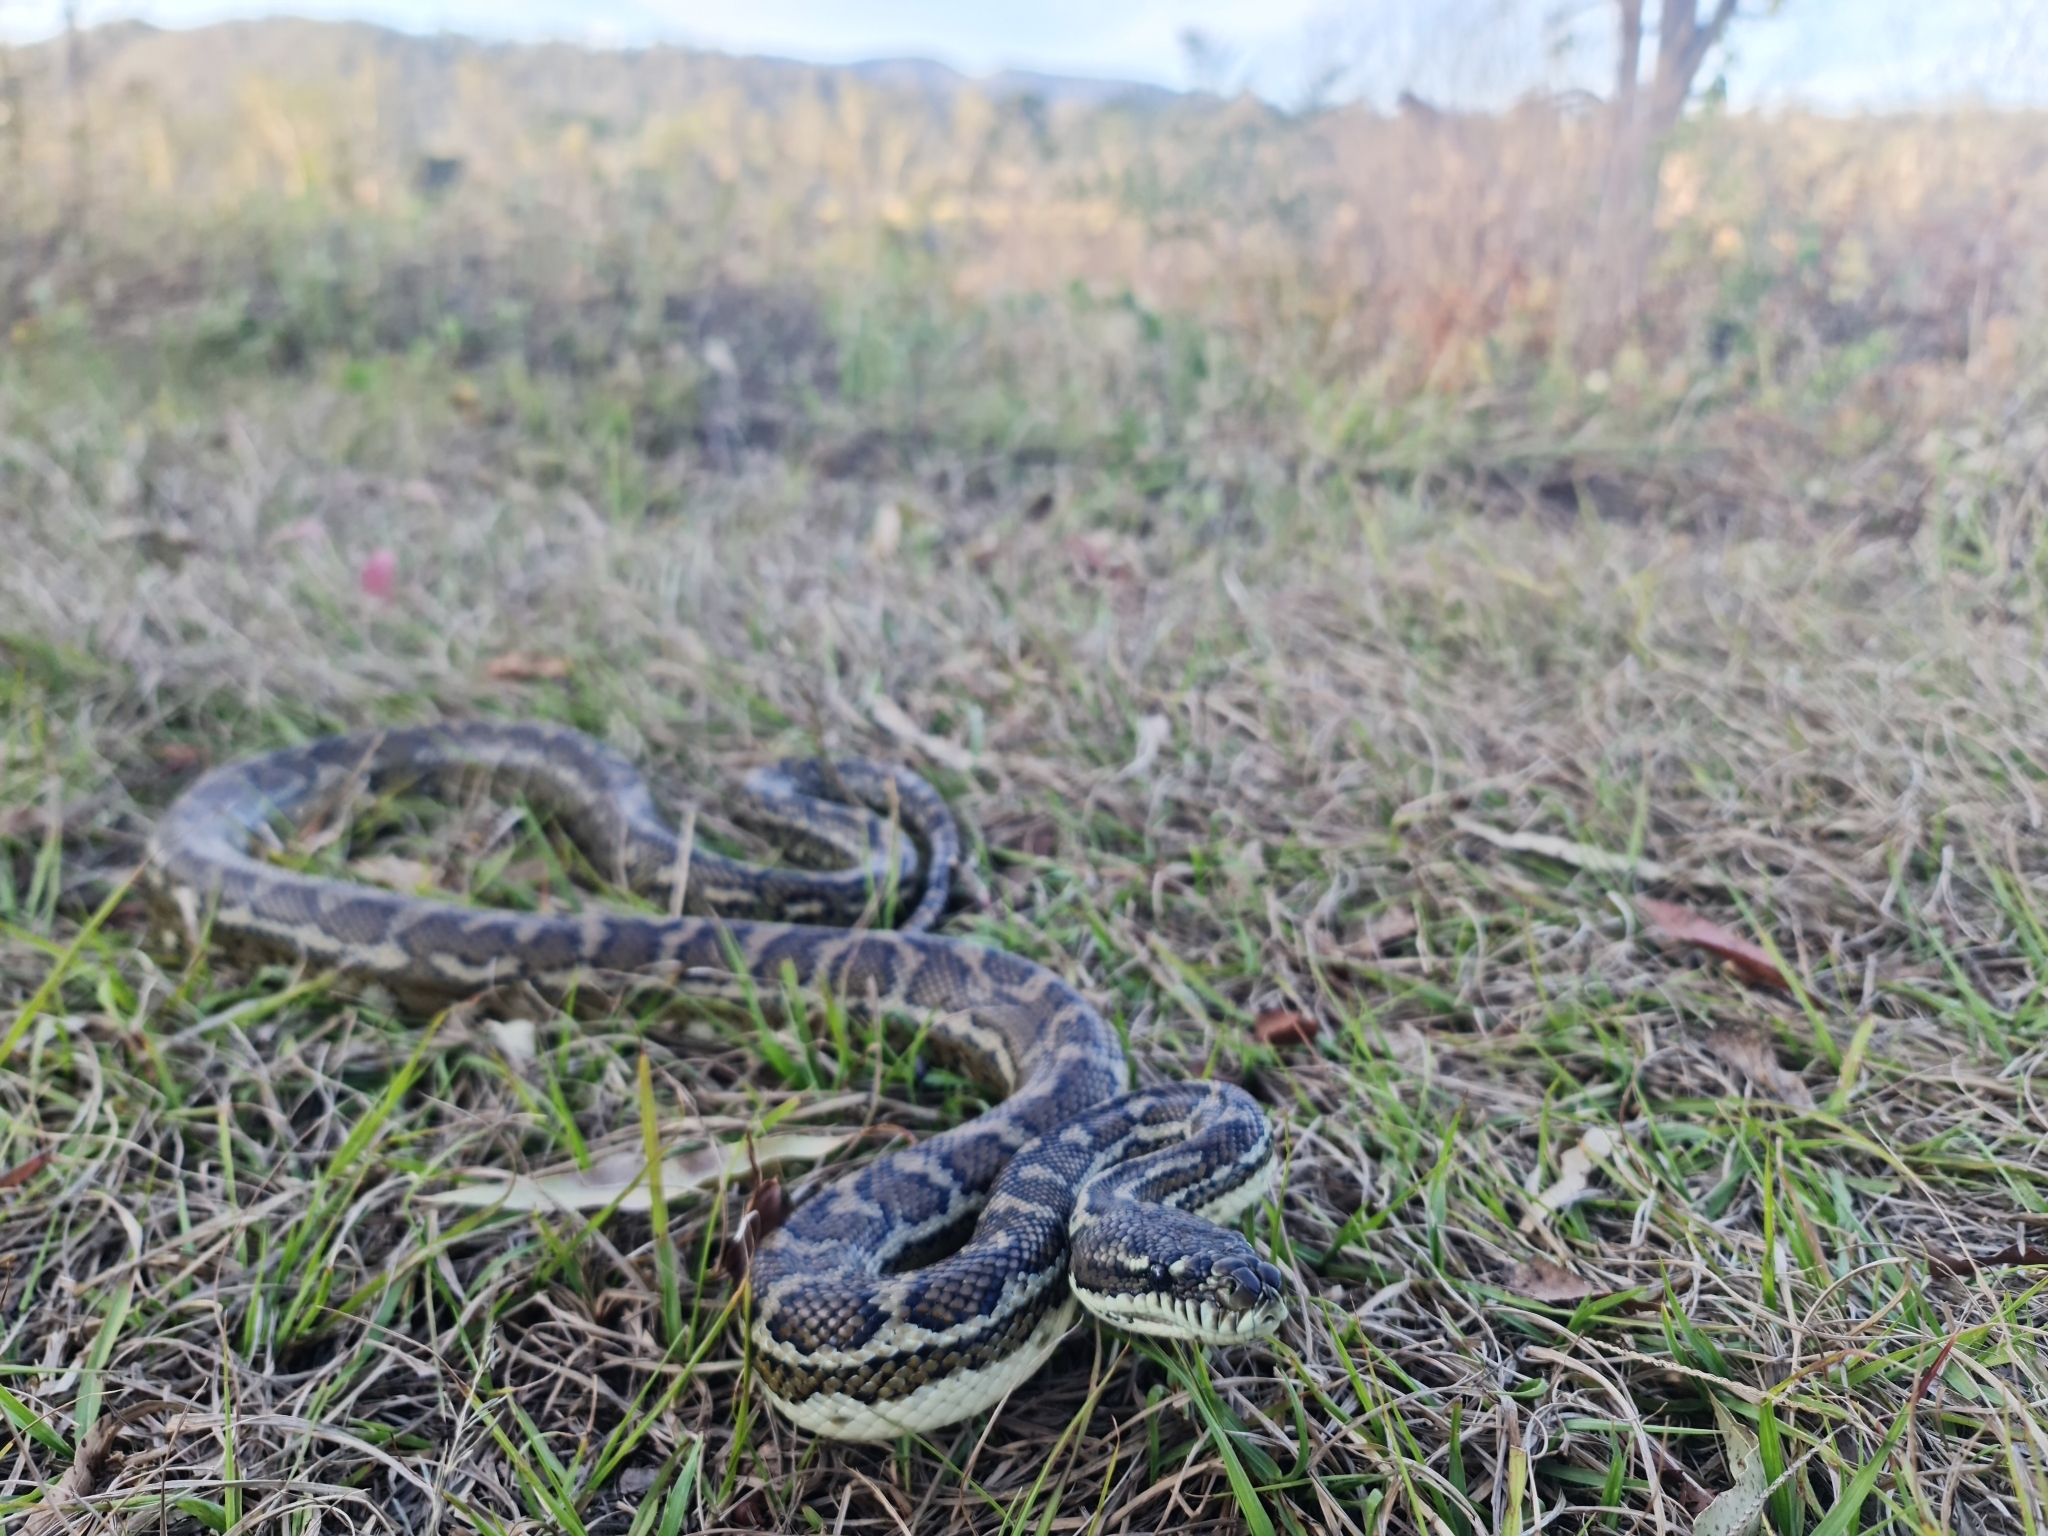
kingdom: Animalia
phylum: Chordata
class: Squamata
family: Pythonidae
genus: Morelia
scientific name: Morelia spilota
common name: Carpet python
